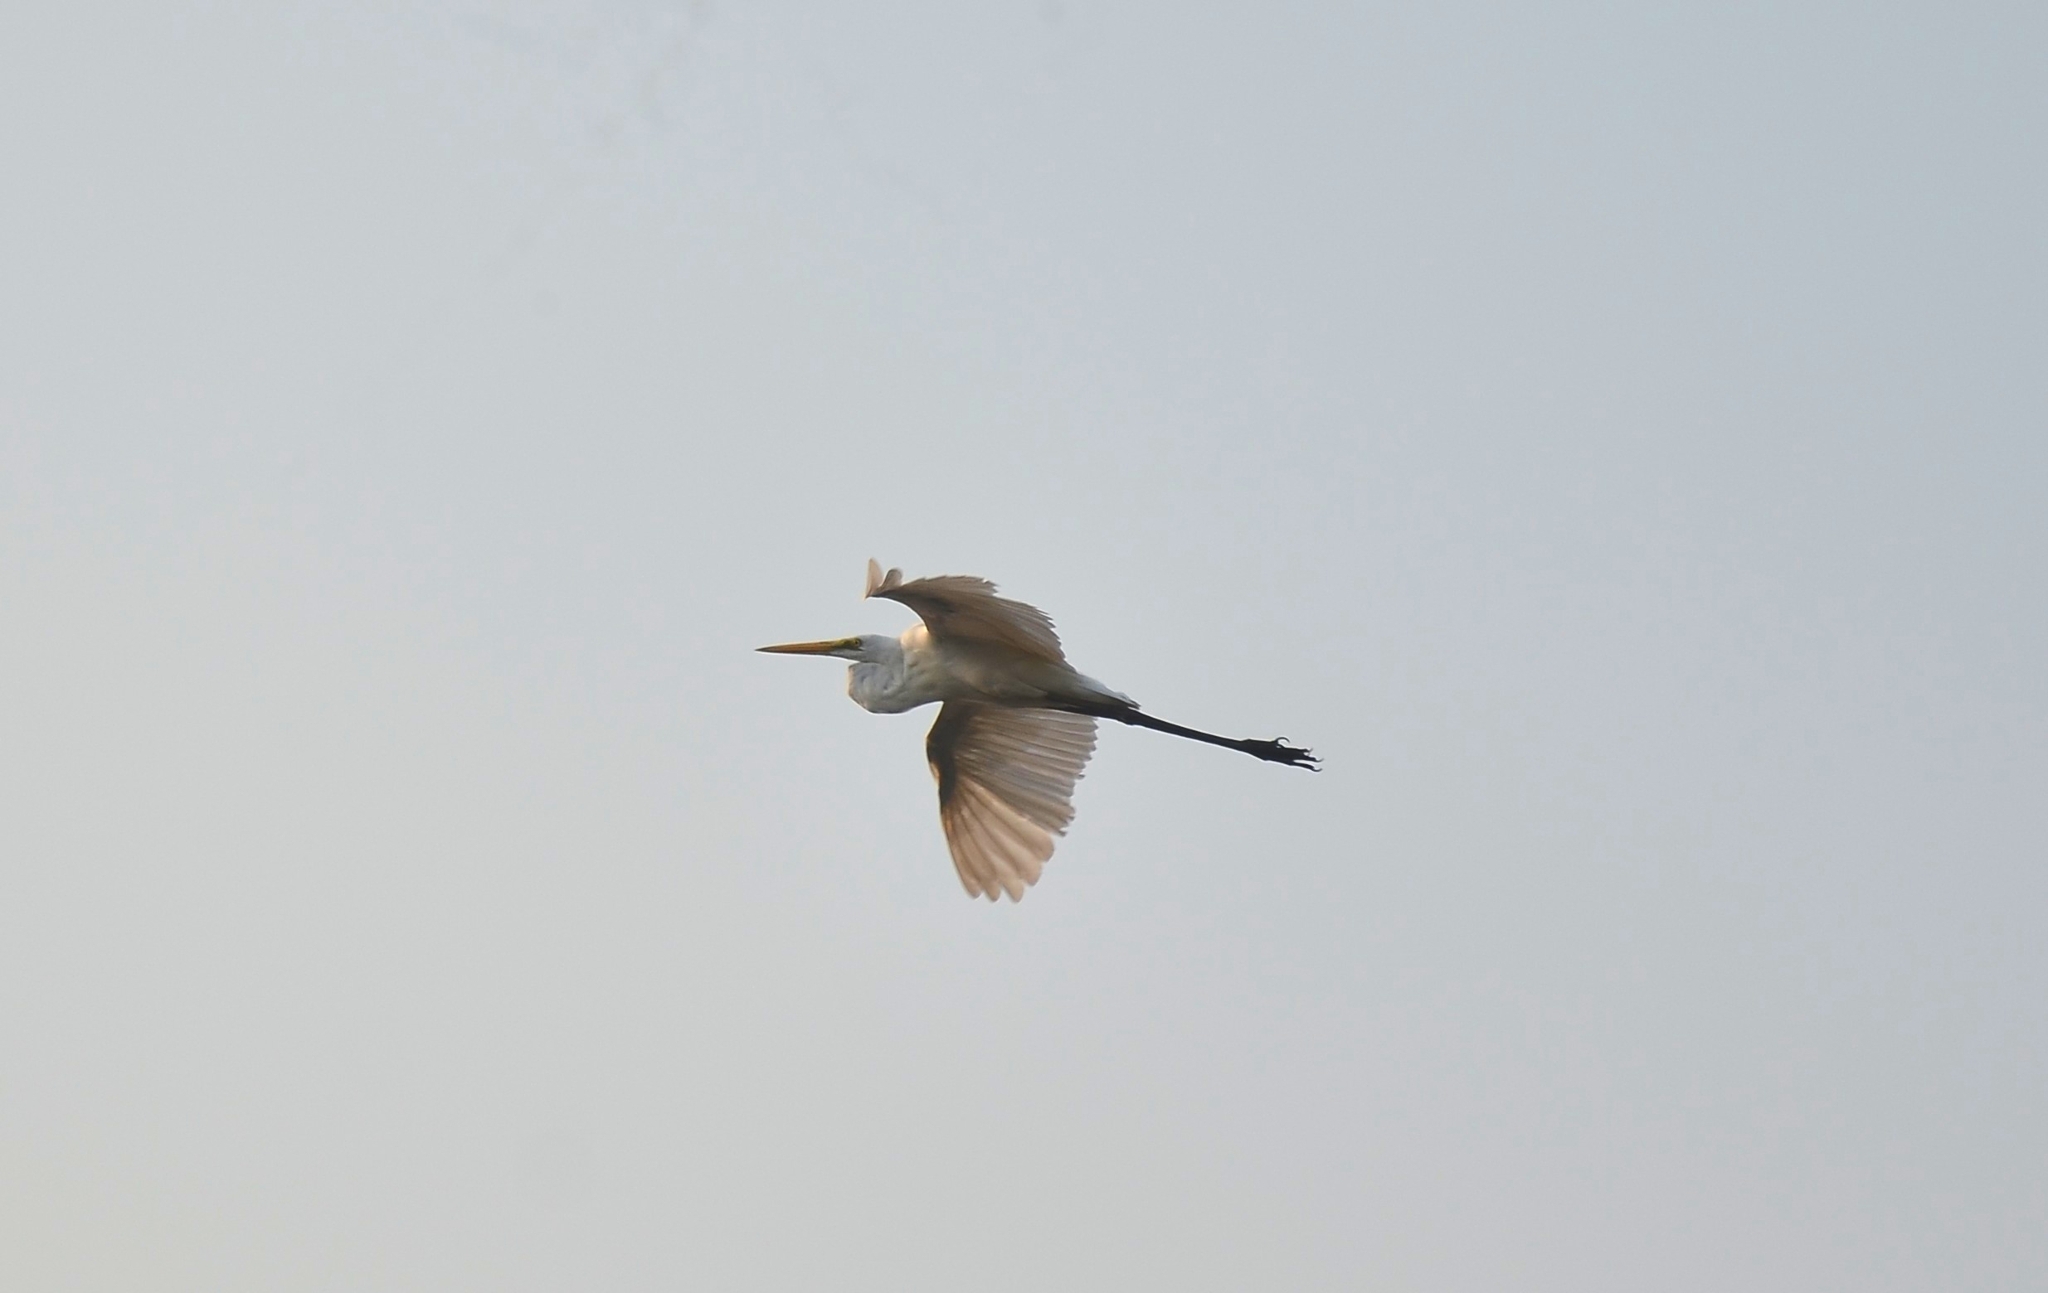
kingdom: Animalia
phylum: Chordata
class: Aves
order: Pelecaniformes
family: Ardeidae
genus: Ardea
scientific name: Ardea alba
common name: Great egret
